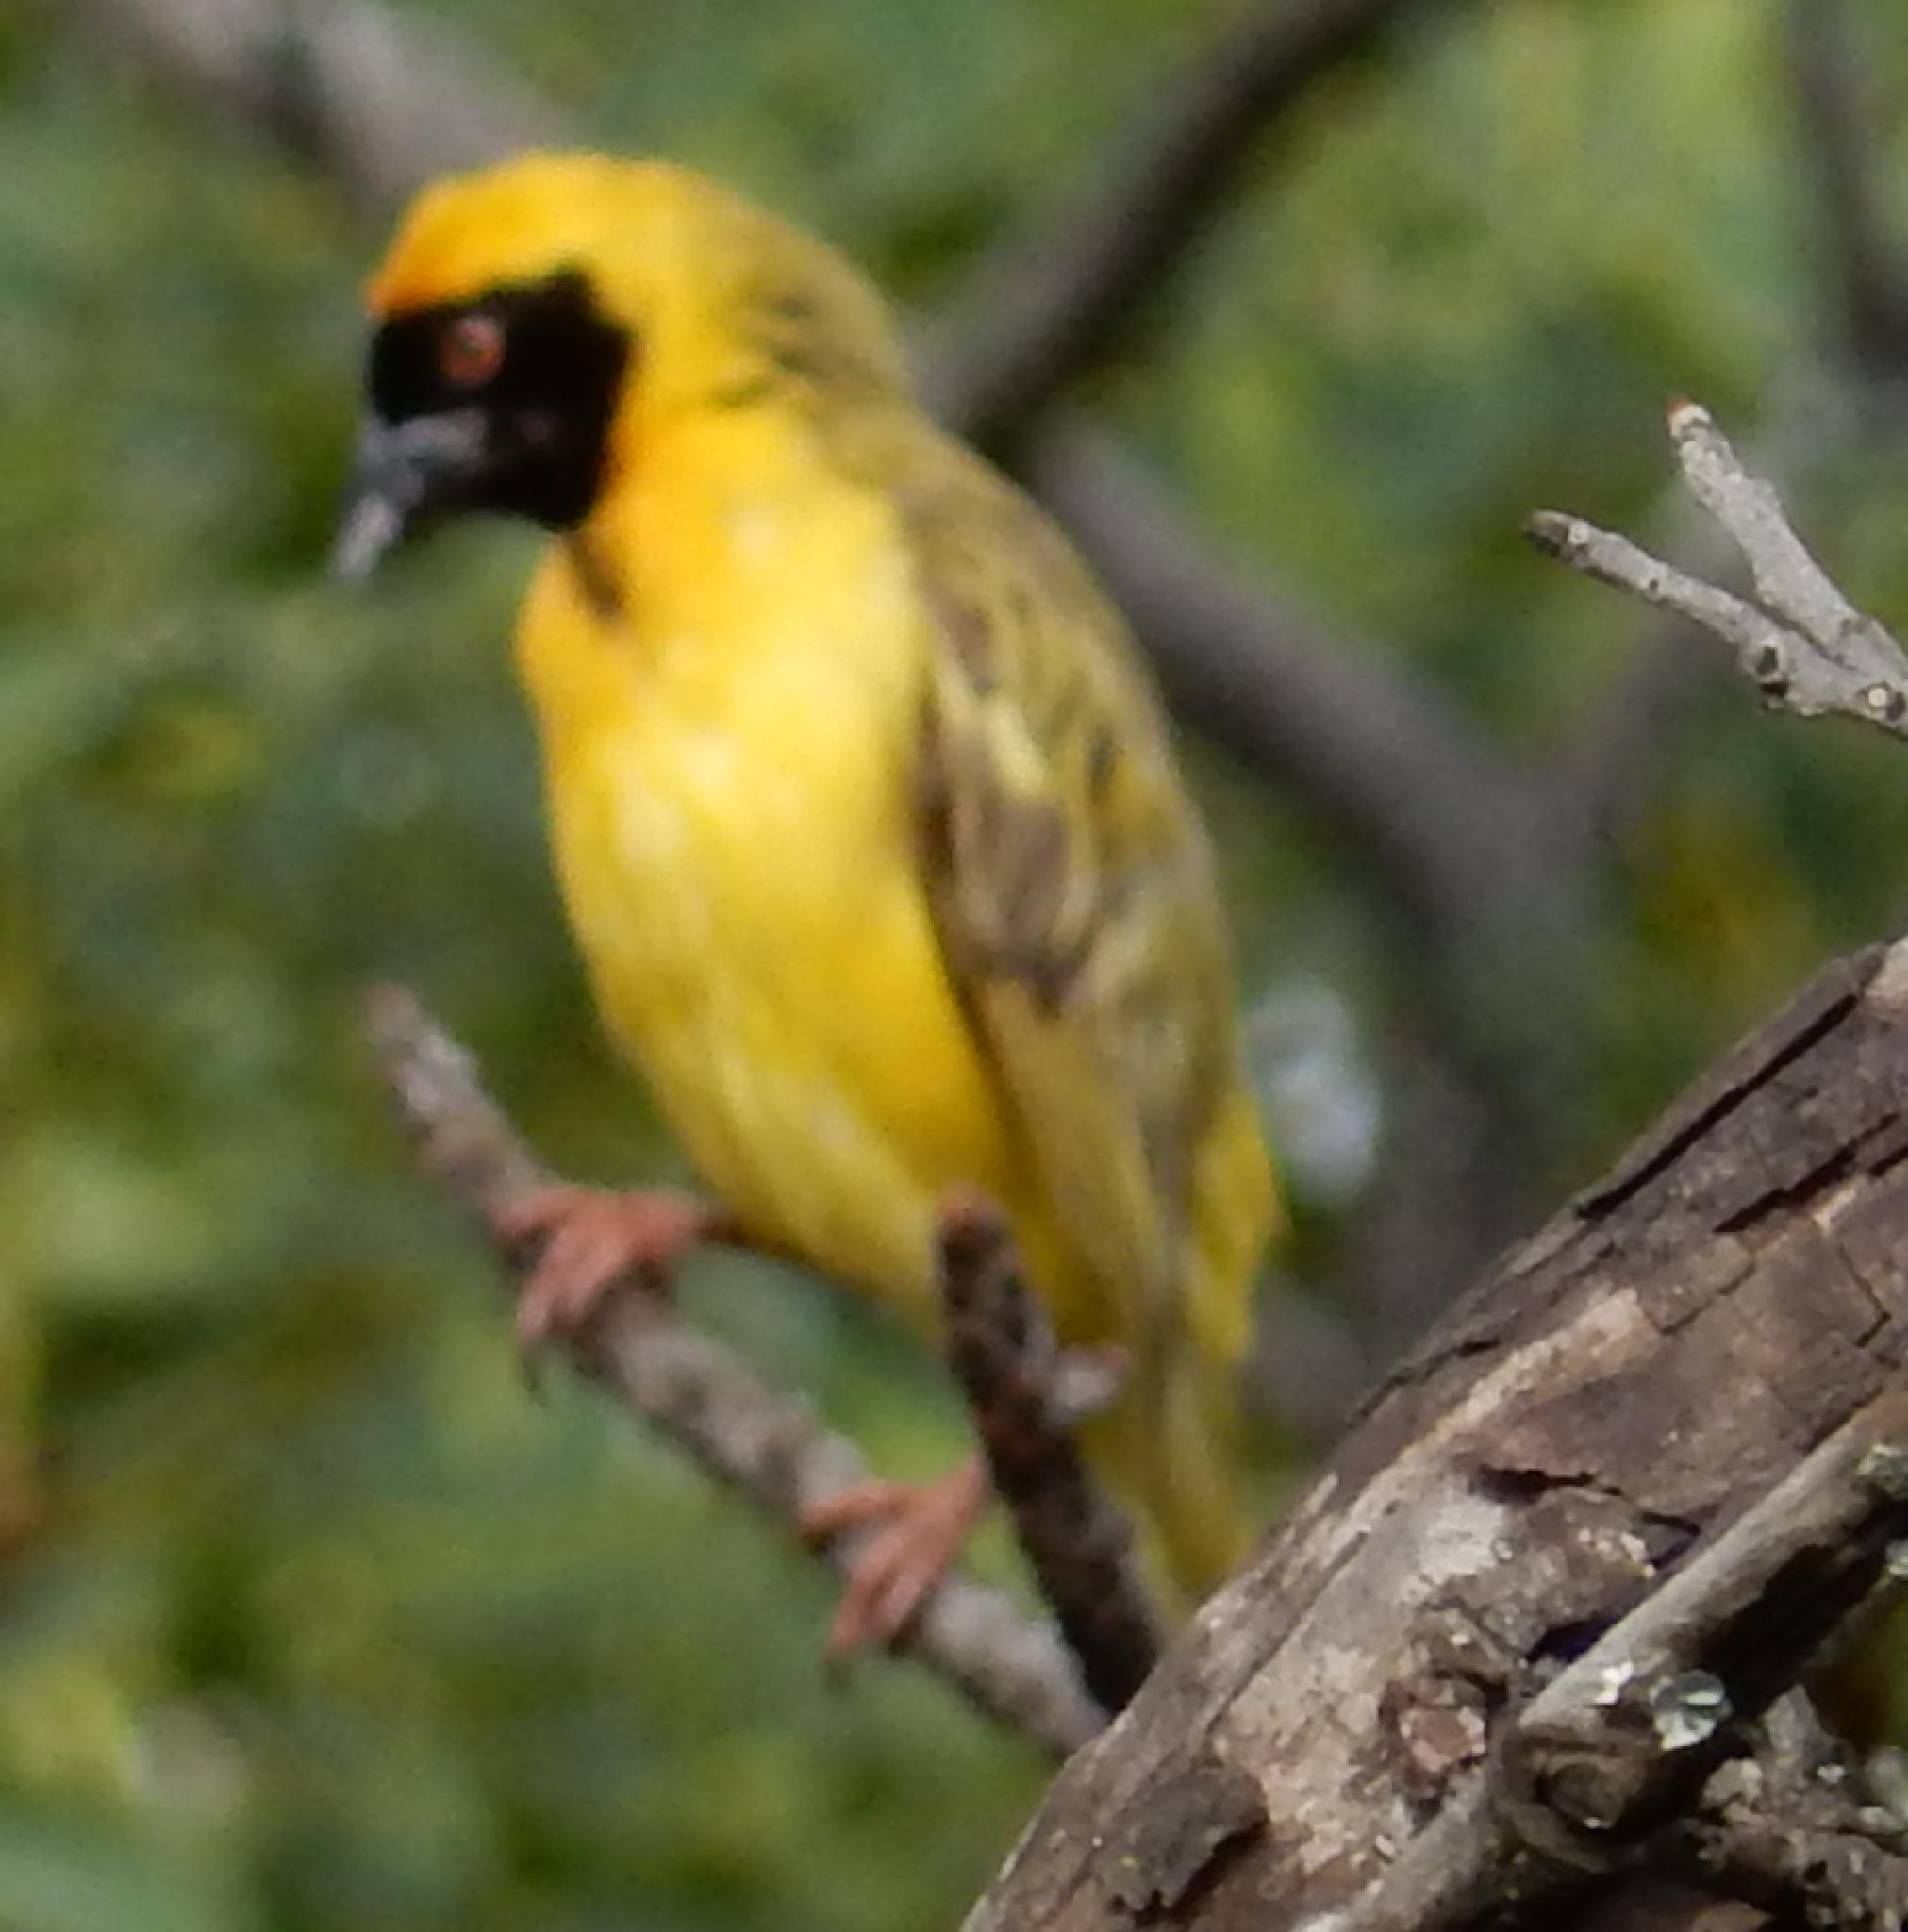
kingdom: Animalia
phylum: Chordata
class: Aves
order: Passeriformes
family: Ploceidae
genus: Ploceus
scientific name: Ploceus velatus
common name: Southern masked weaver
